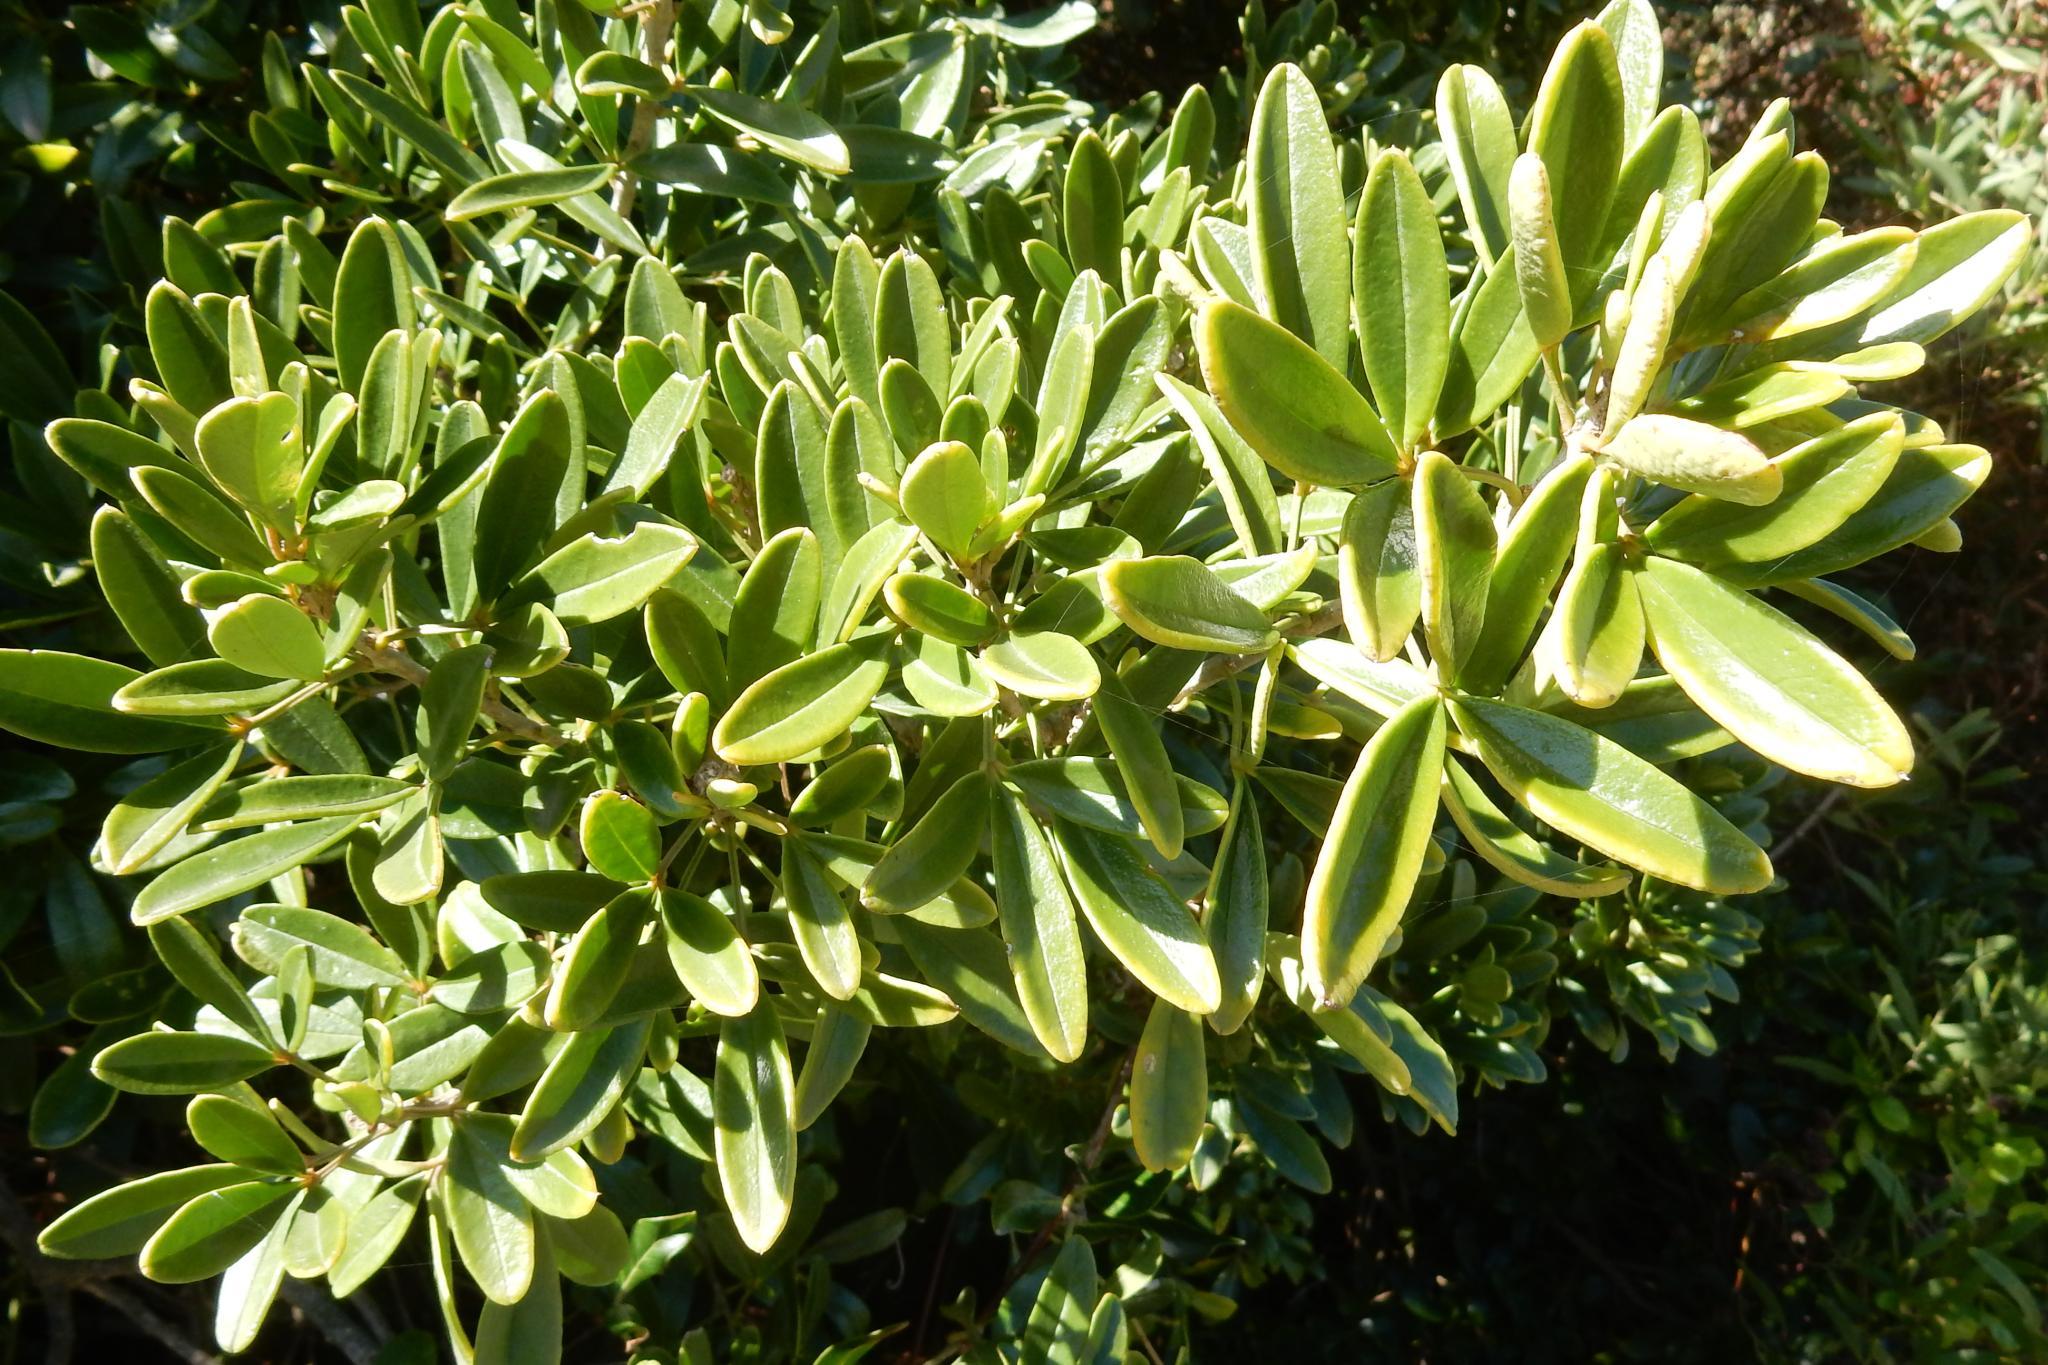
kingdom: Plantae
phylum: Tracheophyta
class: Magnoliopsida
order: Brassicales
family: Capparaceae
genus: Maerua
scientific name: Maerua cafra
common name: Bush maerua
